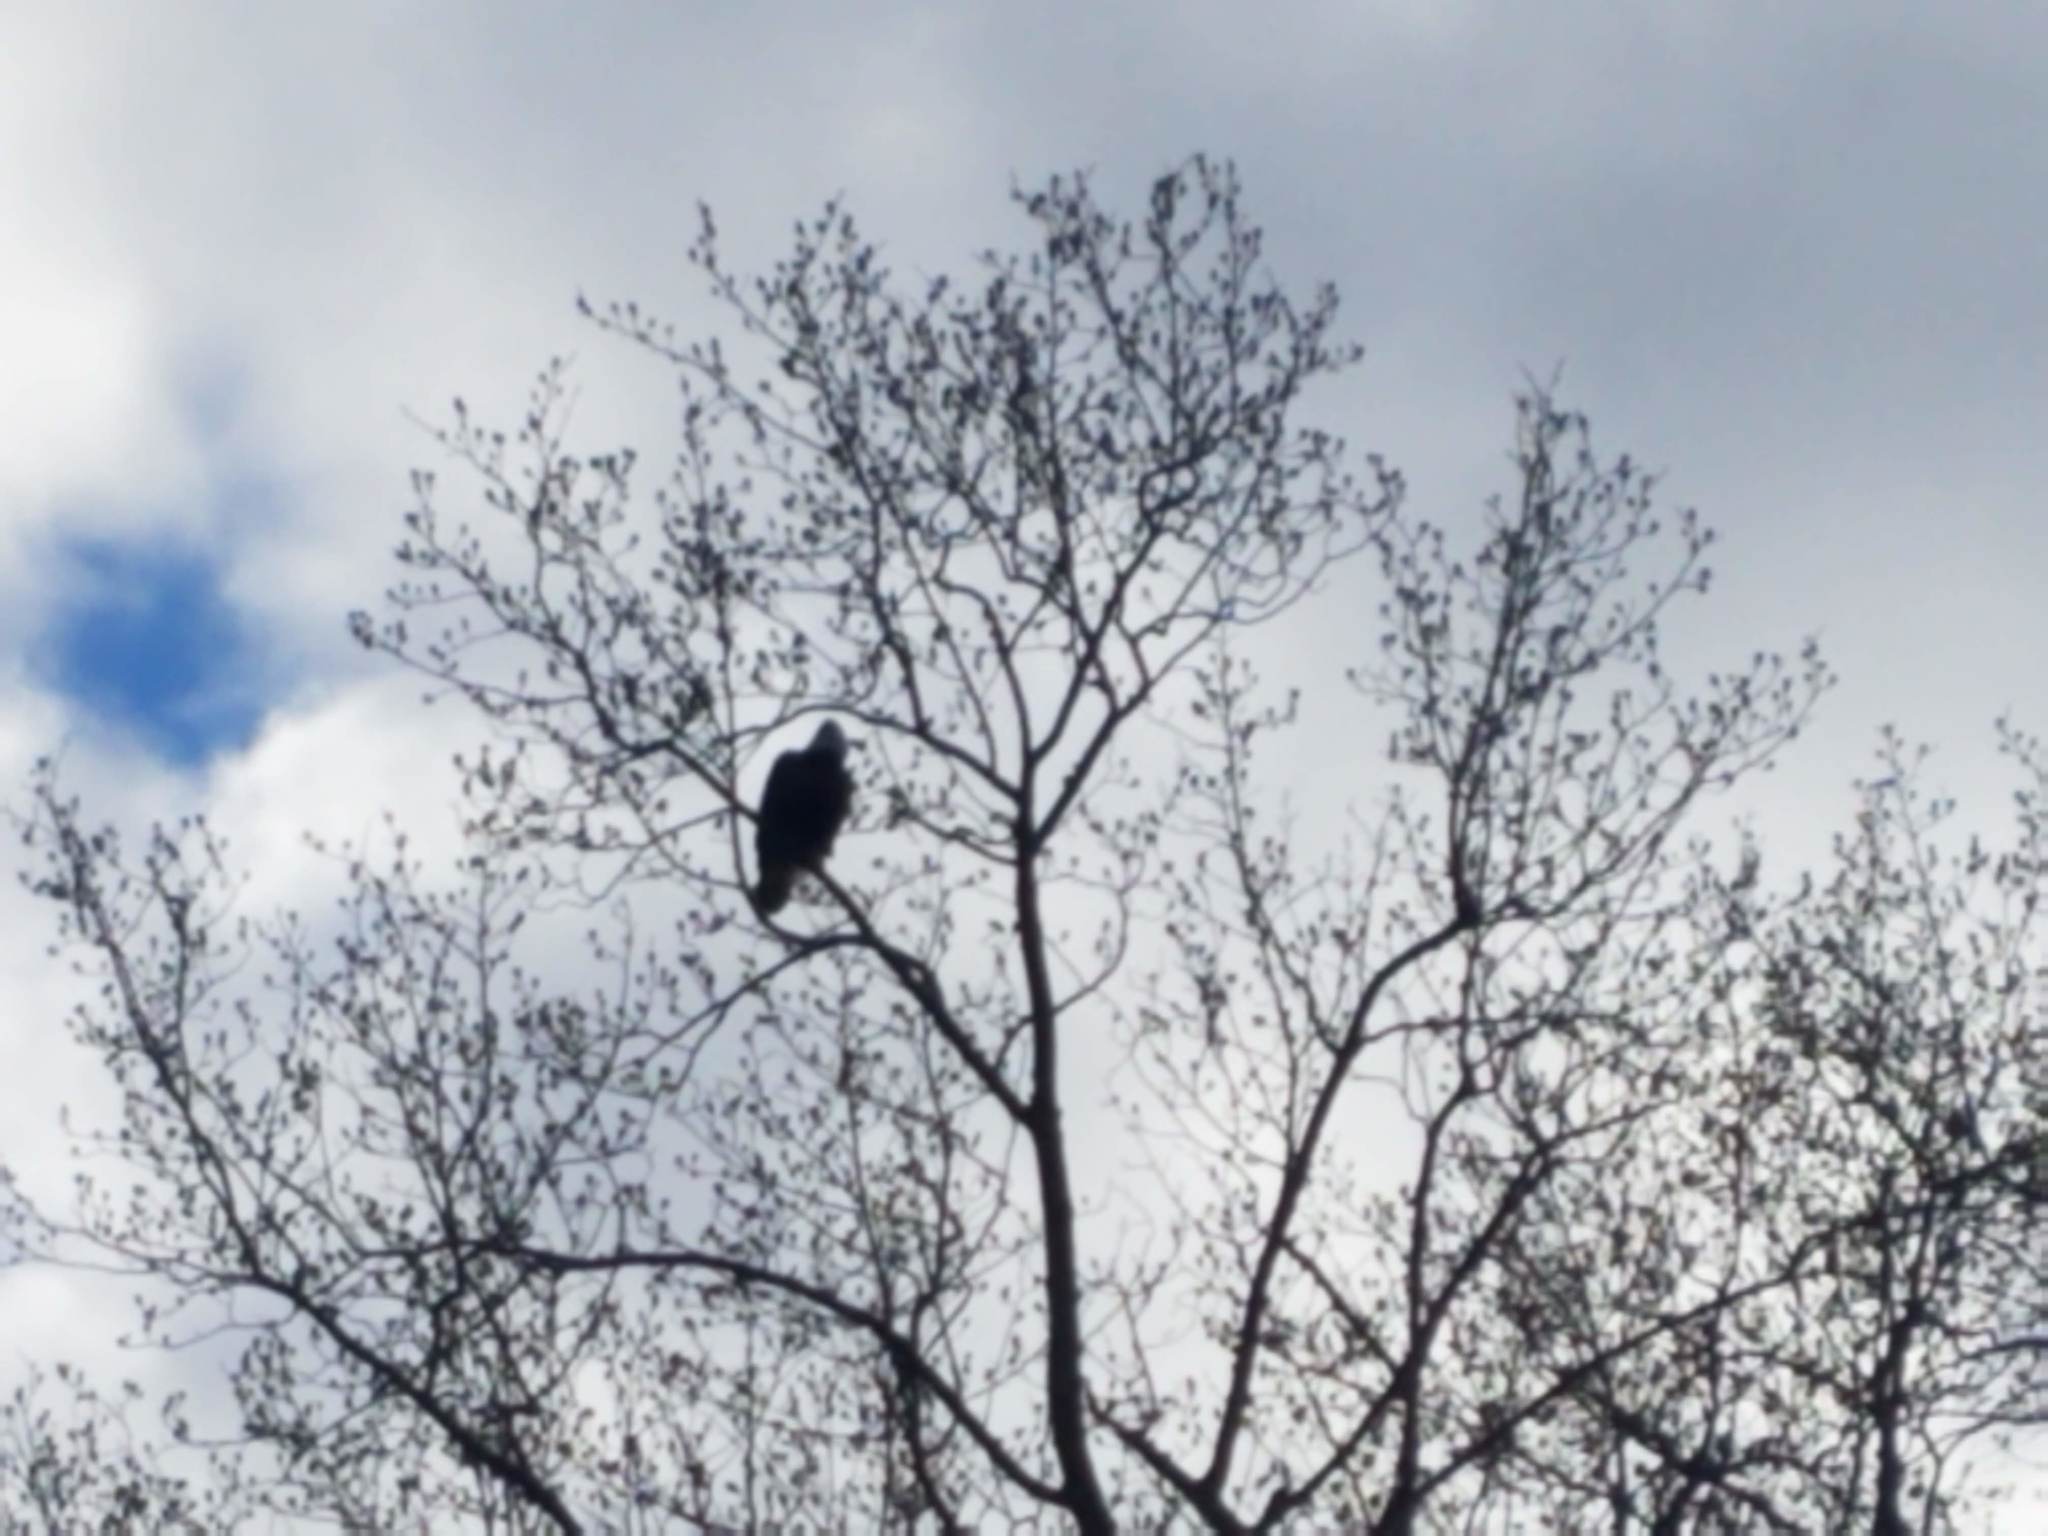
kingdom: Animalia
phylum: Chordata
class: Aves
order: Accipitriformes
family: Accipitridae
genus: Haliaeetus
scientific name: Haliaeetus leucocephalus
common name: Bald eagle
